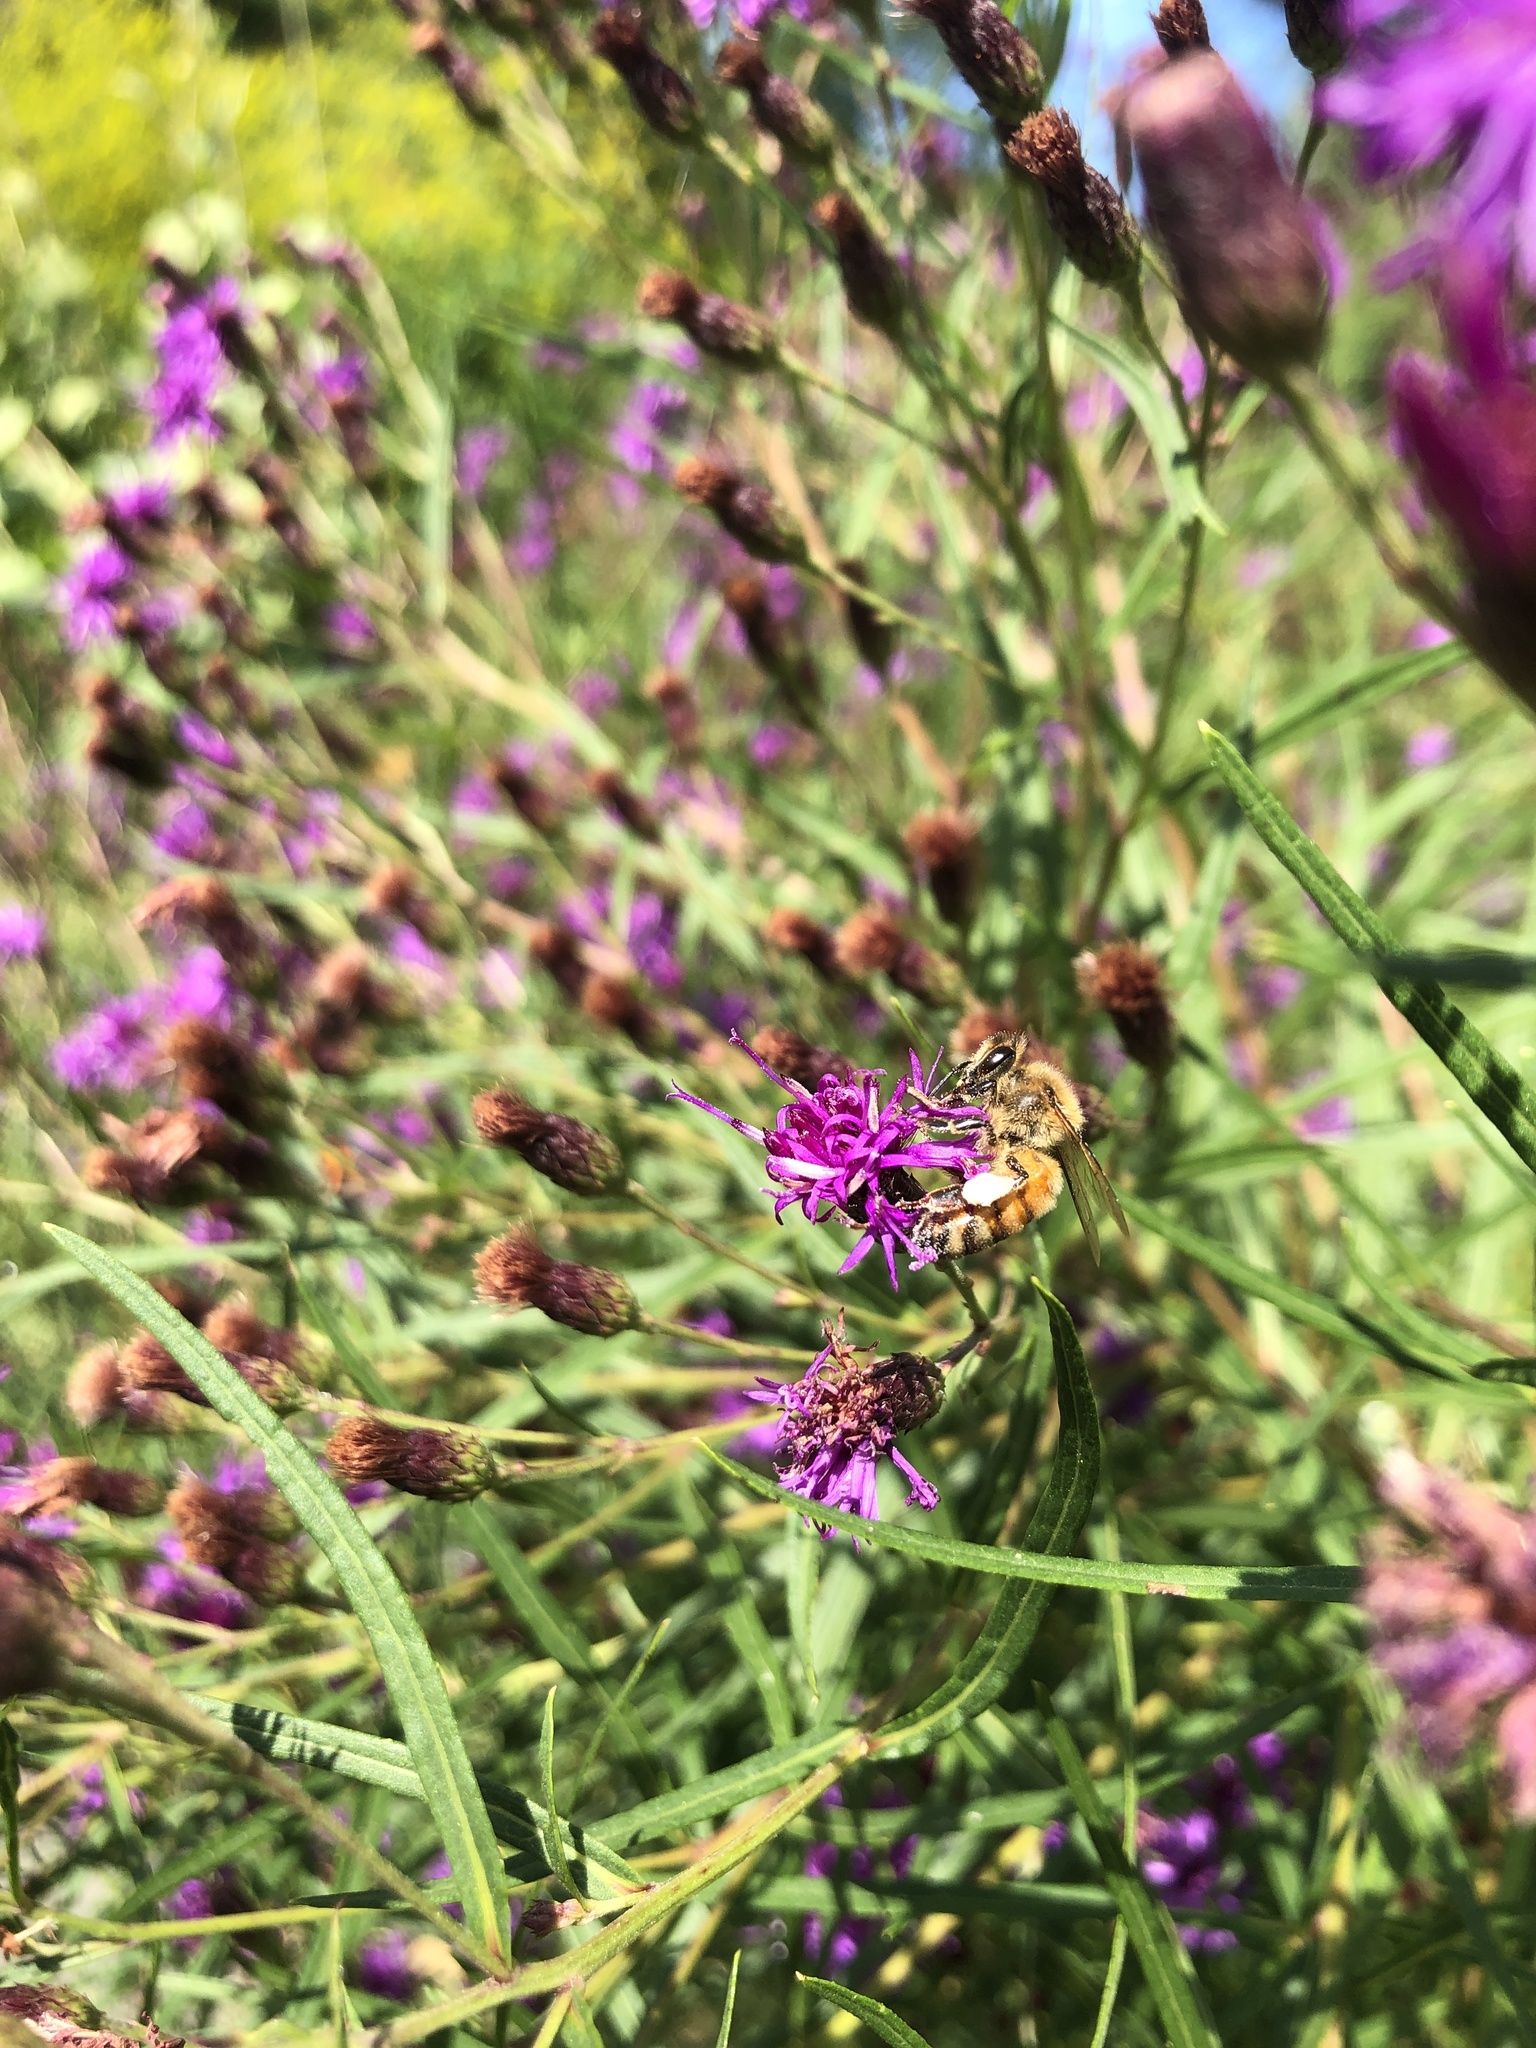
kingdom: Animalia
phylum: Arthropoda
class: Insecta
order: Hymenoptera
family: Apidae
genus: Apis
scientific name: Apis mellifera
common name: Honey bee
